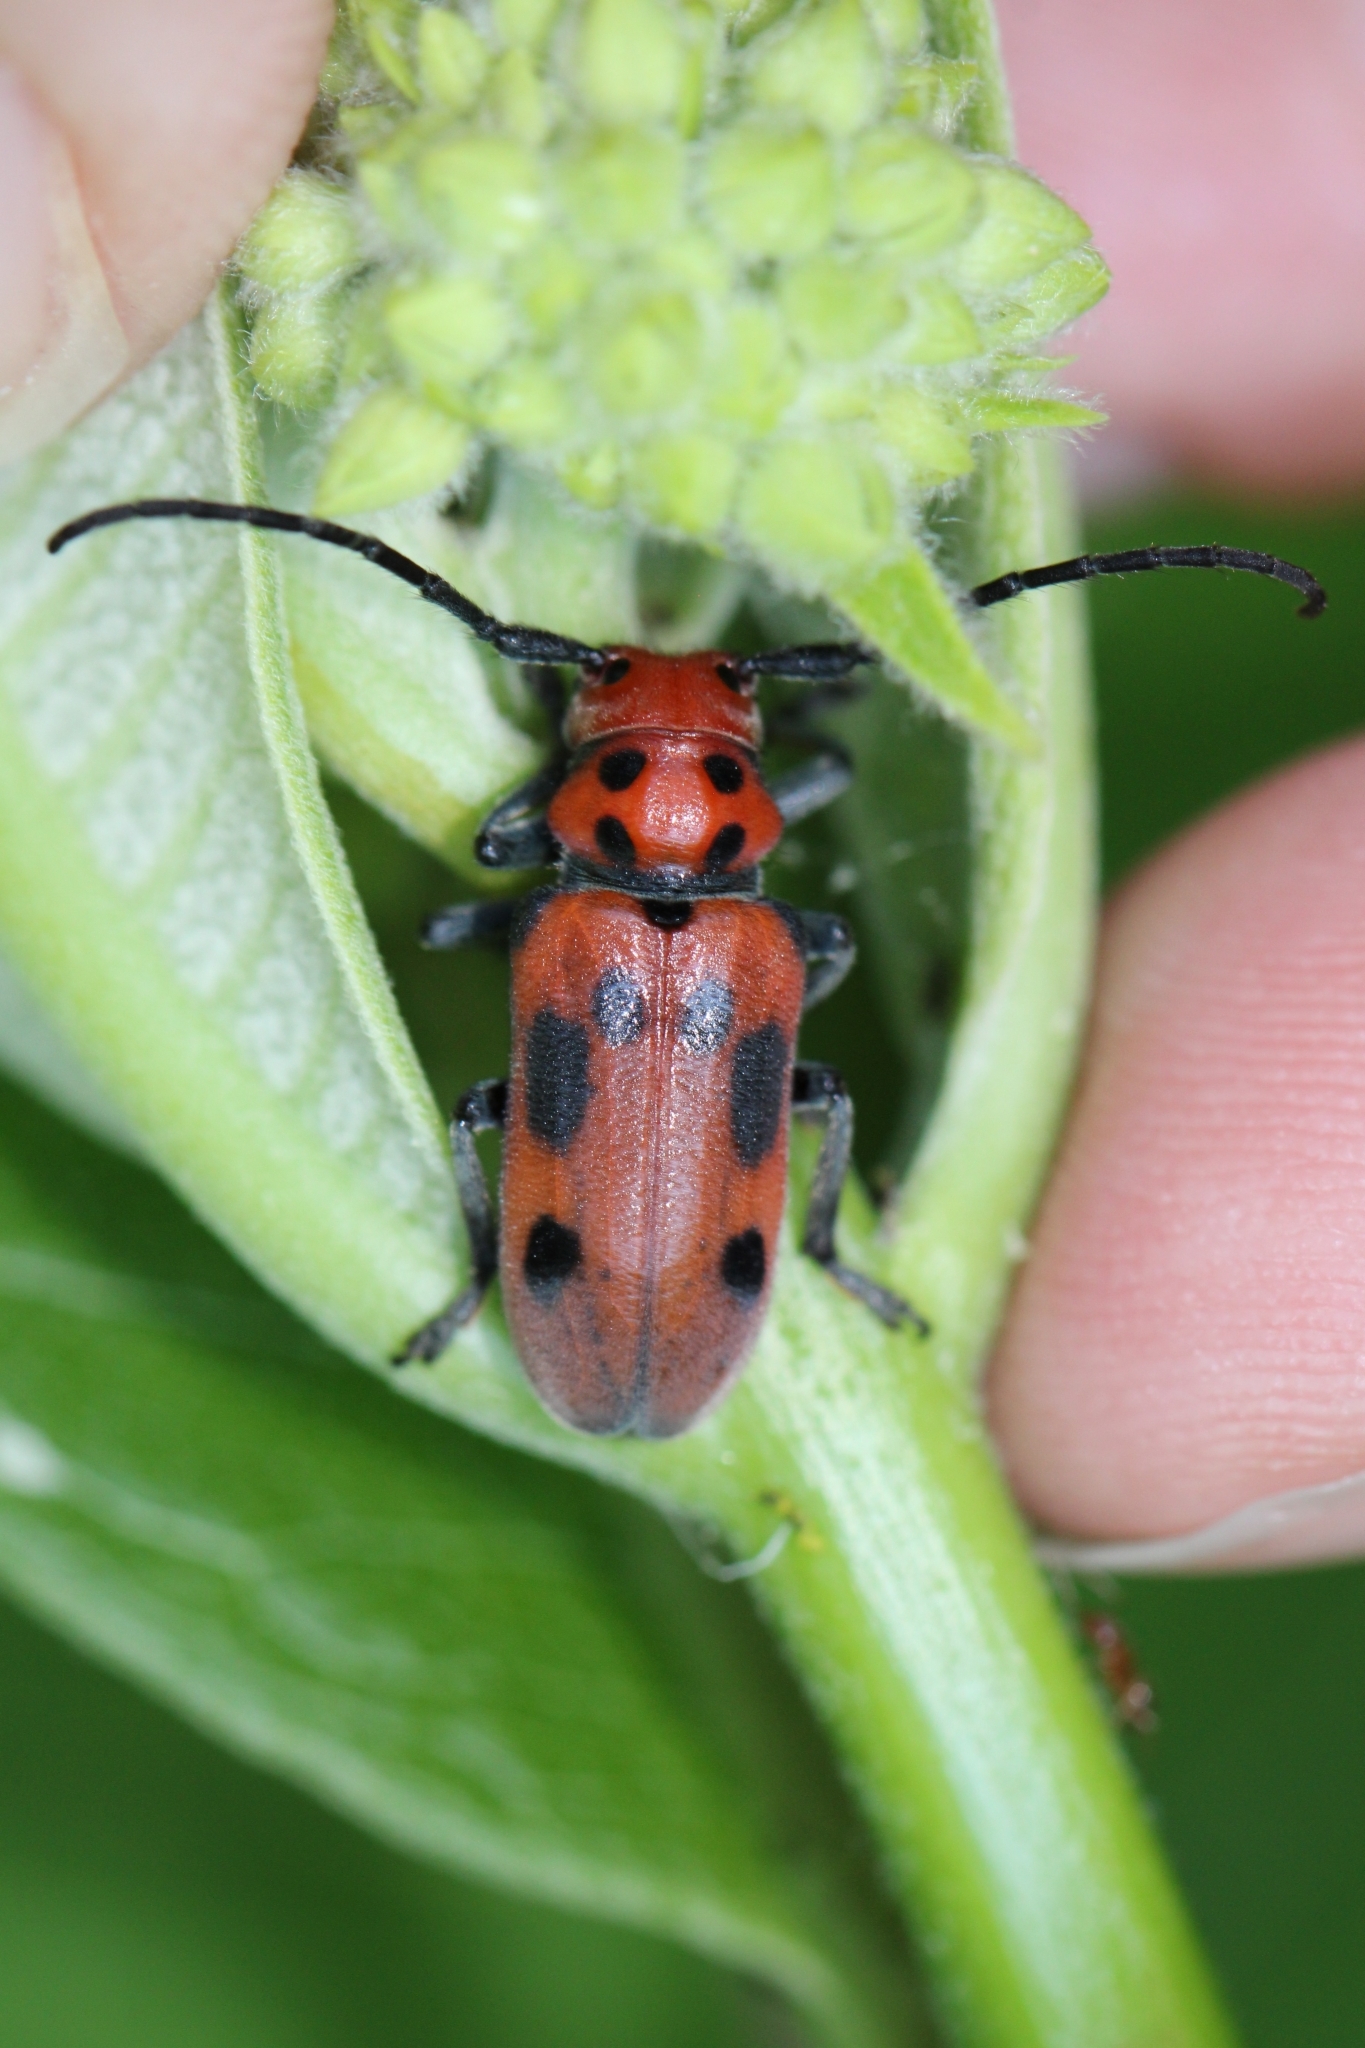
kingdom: Animalia
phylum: Arthropoda
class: Insecta
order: Coleoptera
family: Cerambycidae
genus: Tetraopes
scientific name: Tetraopes tetrophthalmus
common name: Red milkweed beetle
